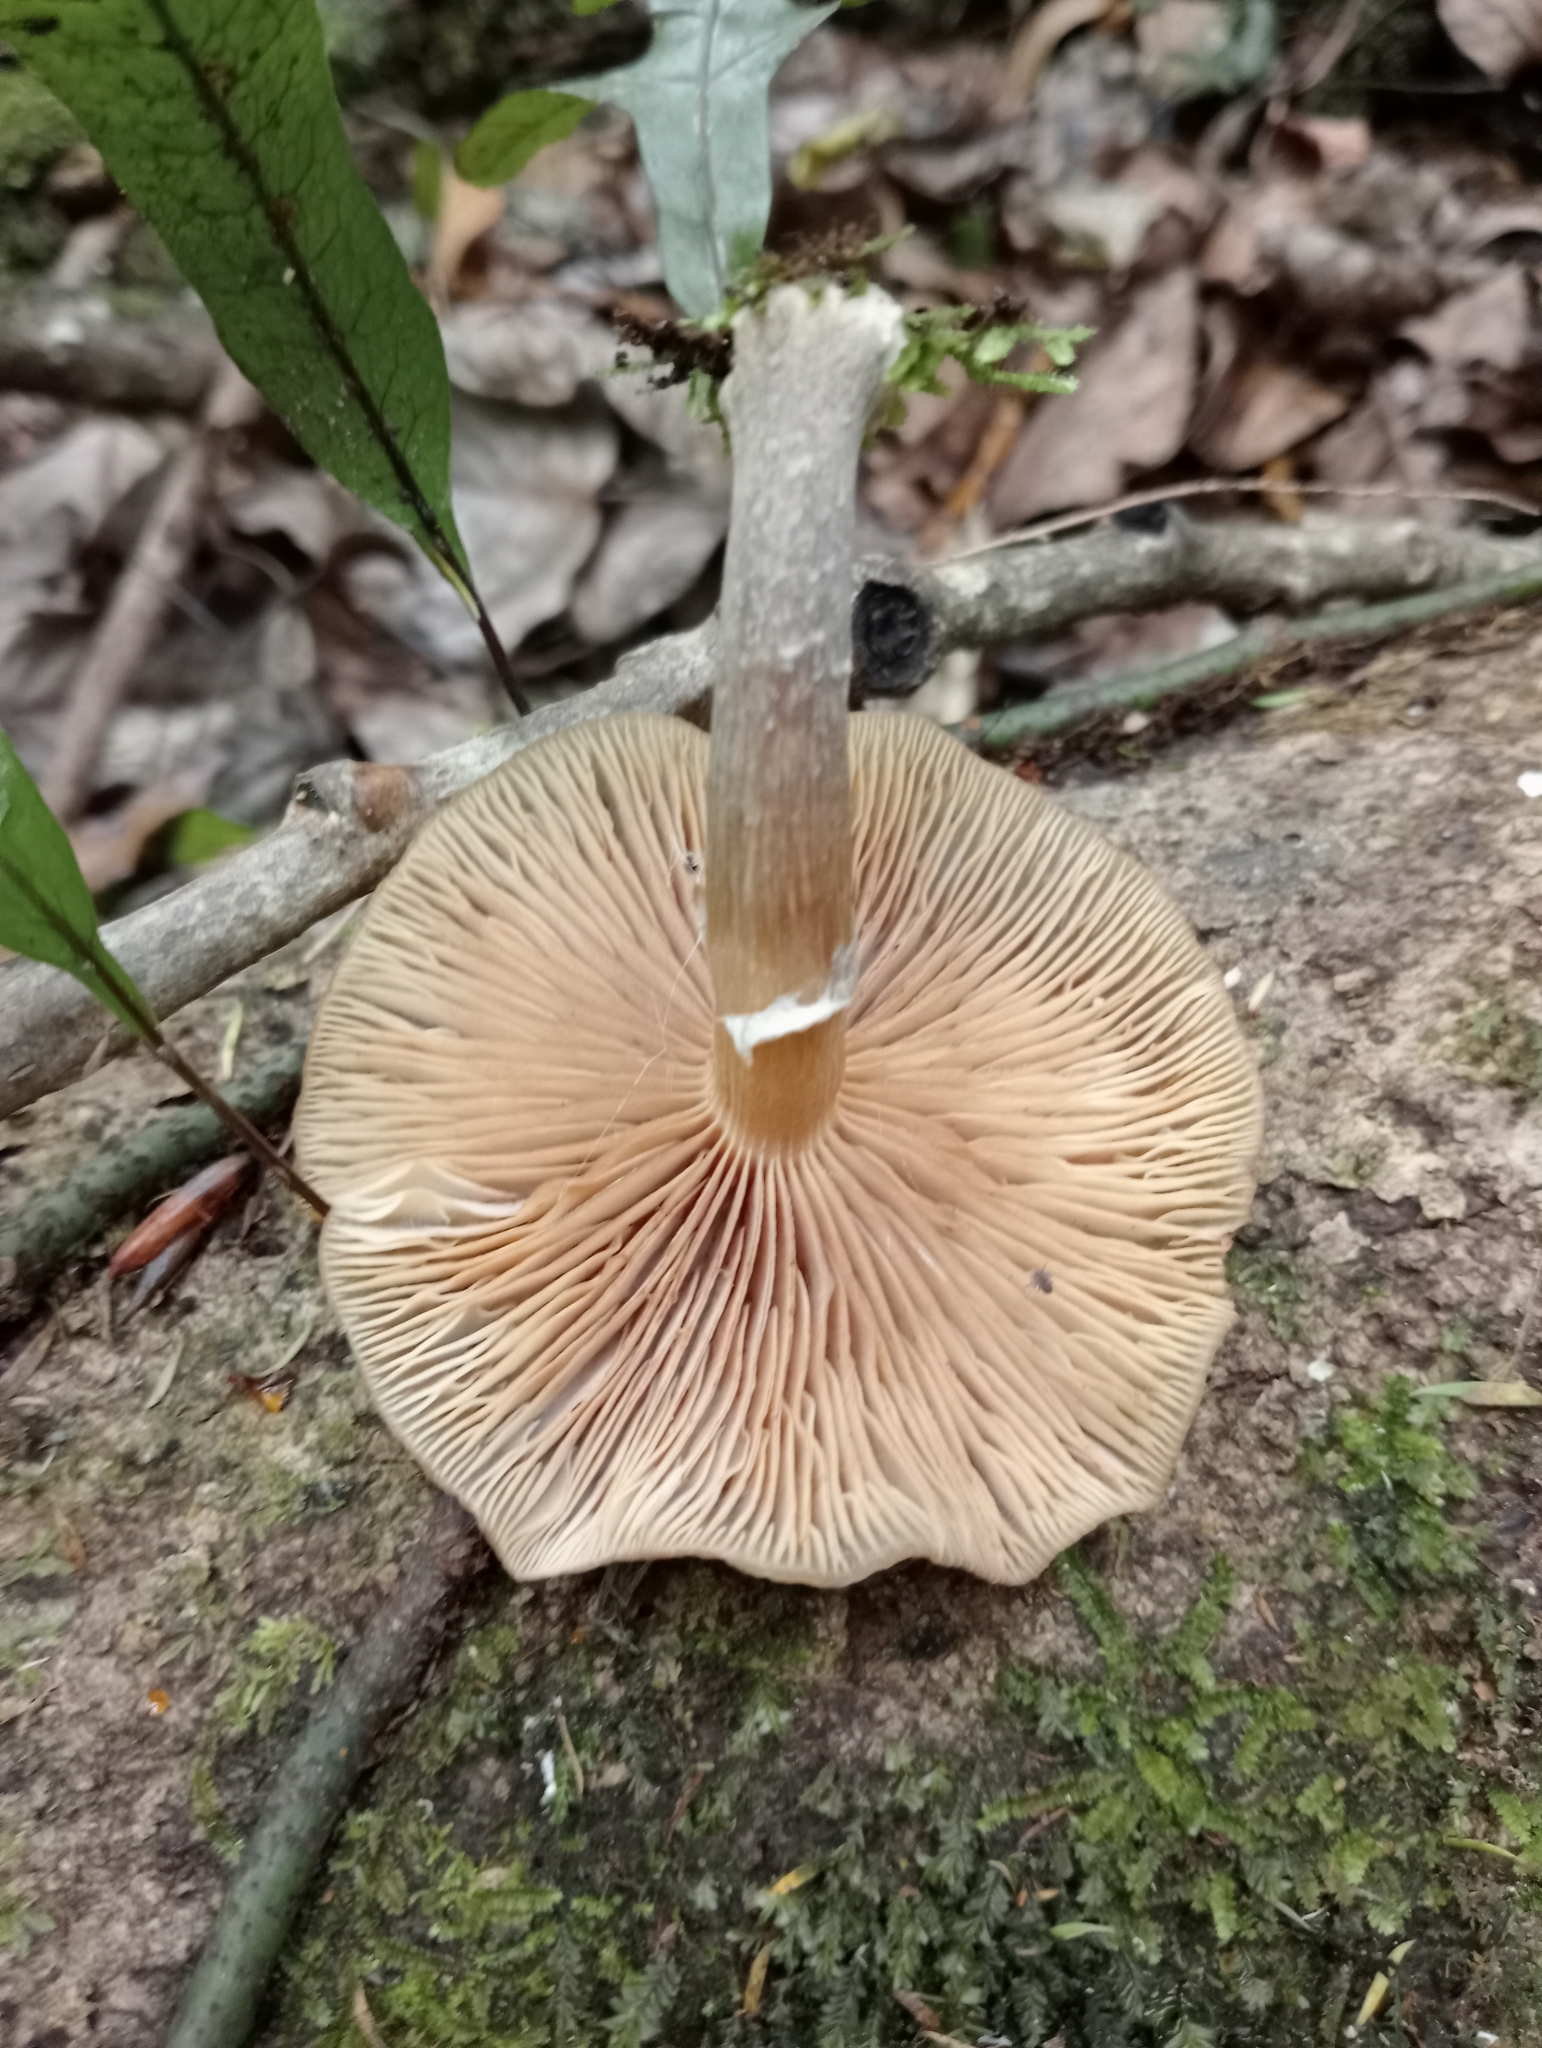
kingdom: Fungi
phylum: Basidiomycota
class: Agaricomycetes
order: Agaricales
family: Physalacriaceae
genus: Armillaria
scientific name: Armillaria novae-zelandiae
